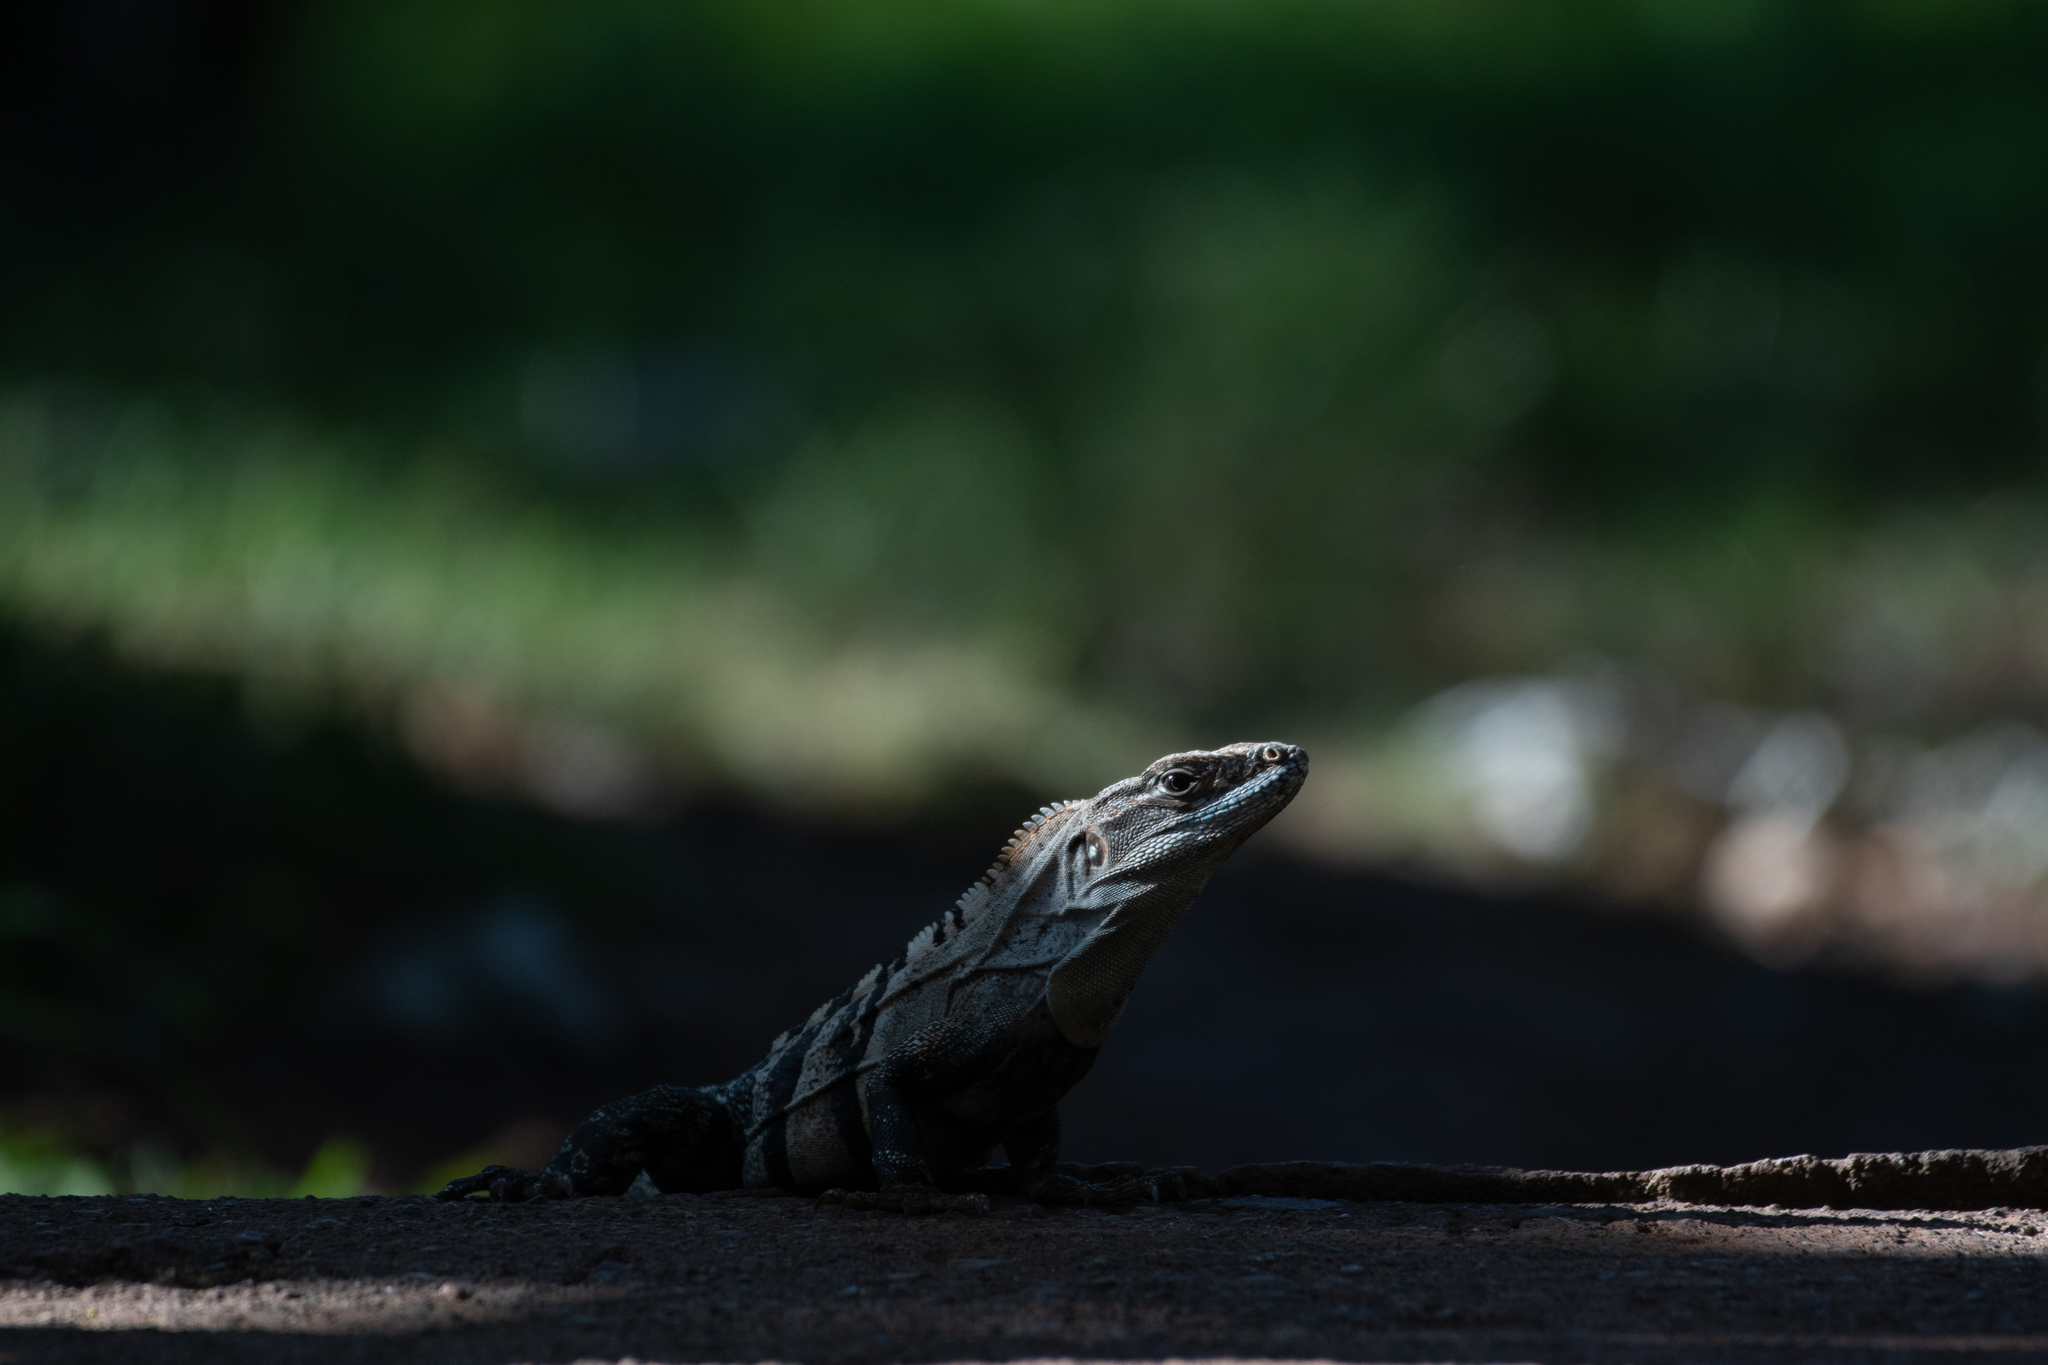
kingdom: Animalia
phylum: Chordata
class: Squamata
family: Iguanidae
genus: Ctenosaura
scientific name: Ctenosaura similis
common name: Black spiny-tailed iguana
